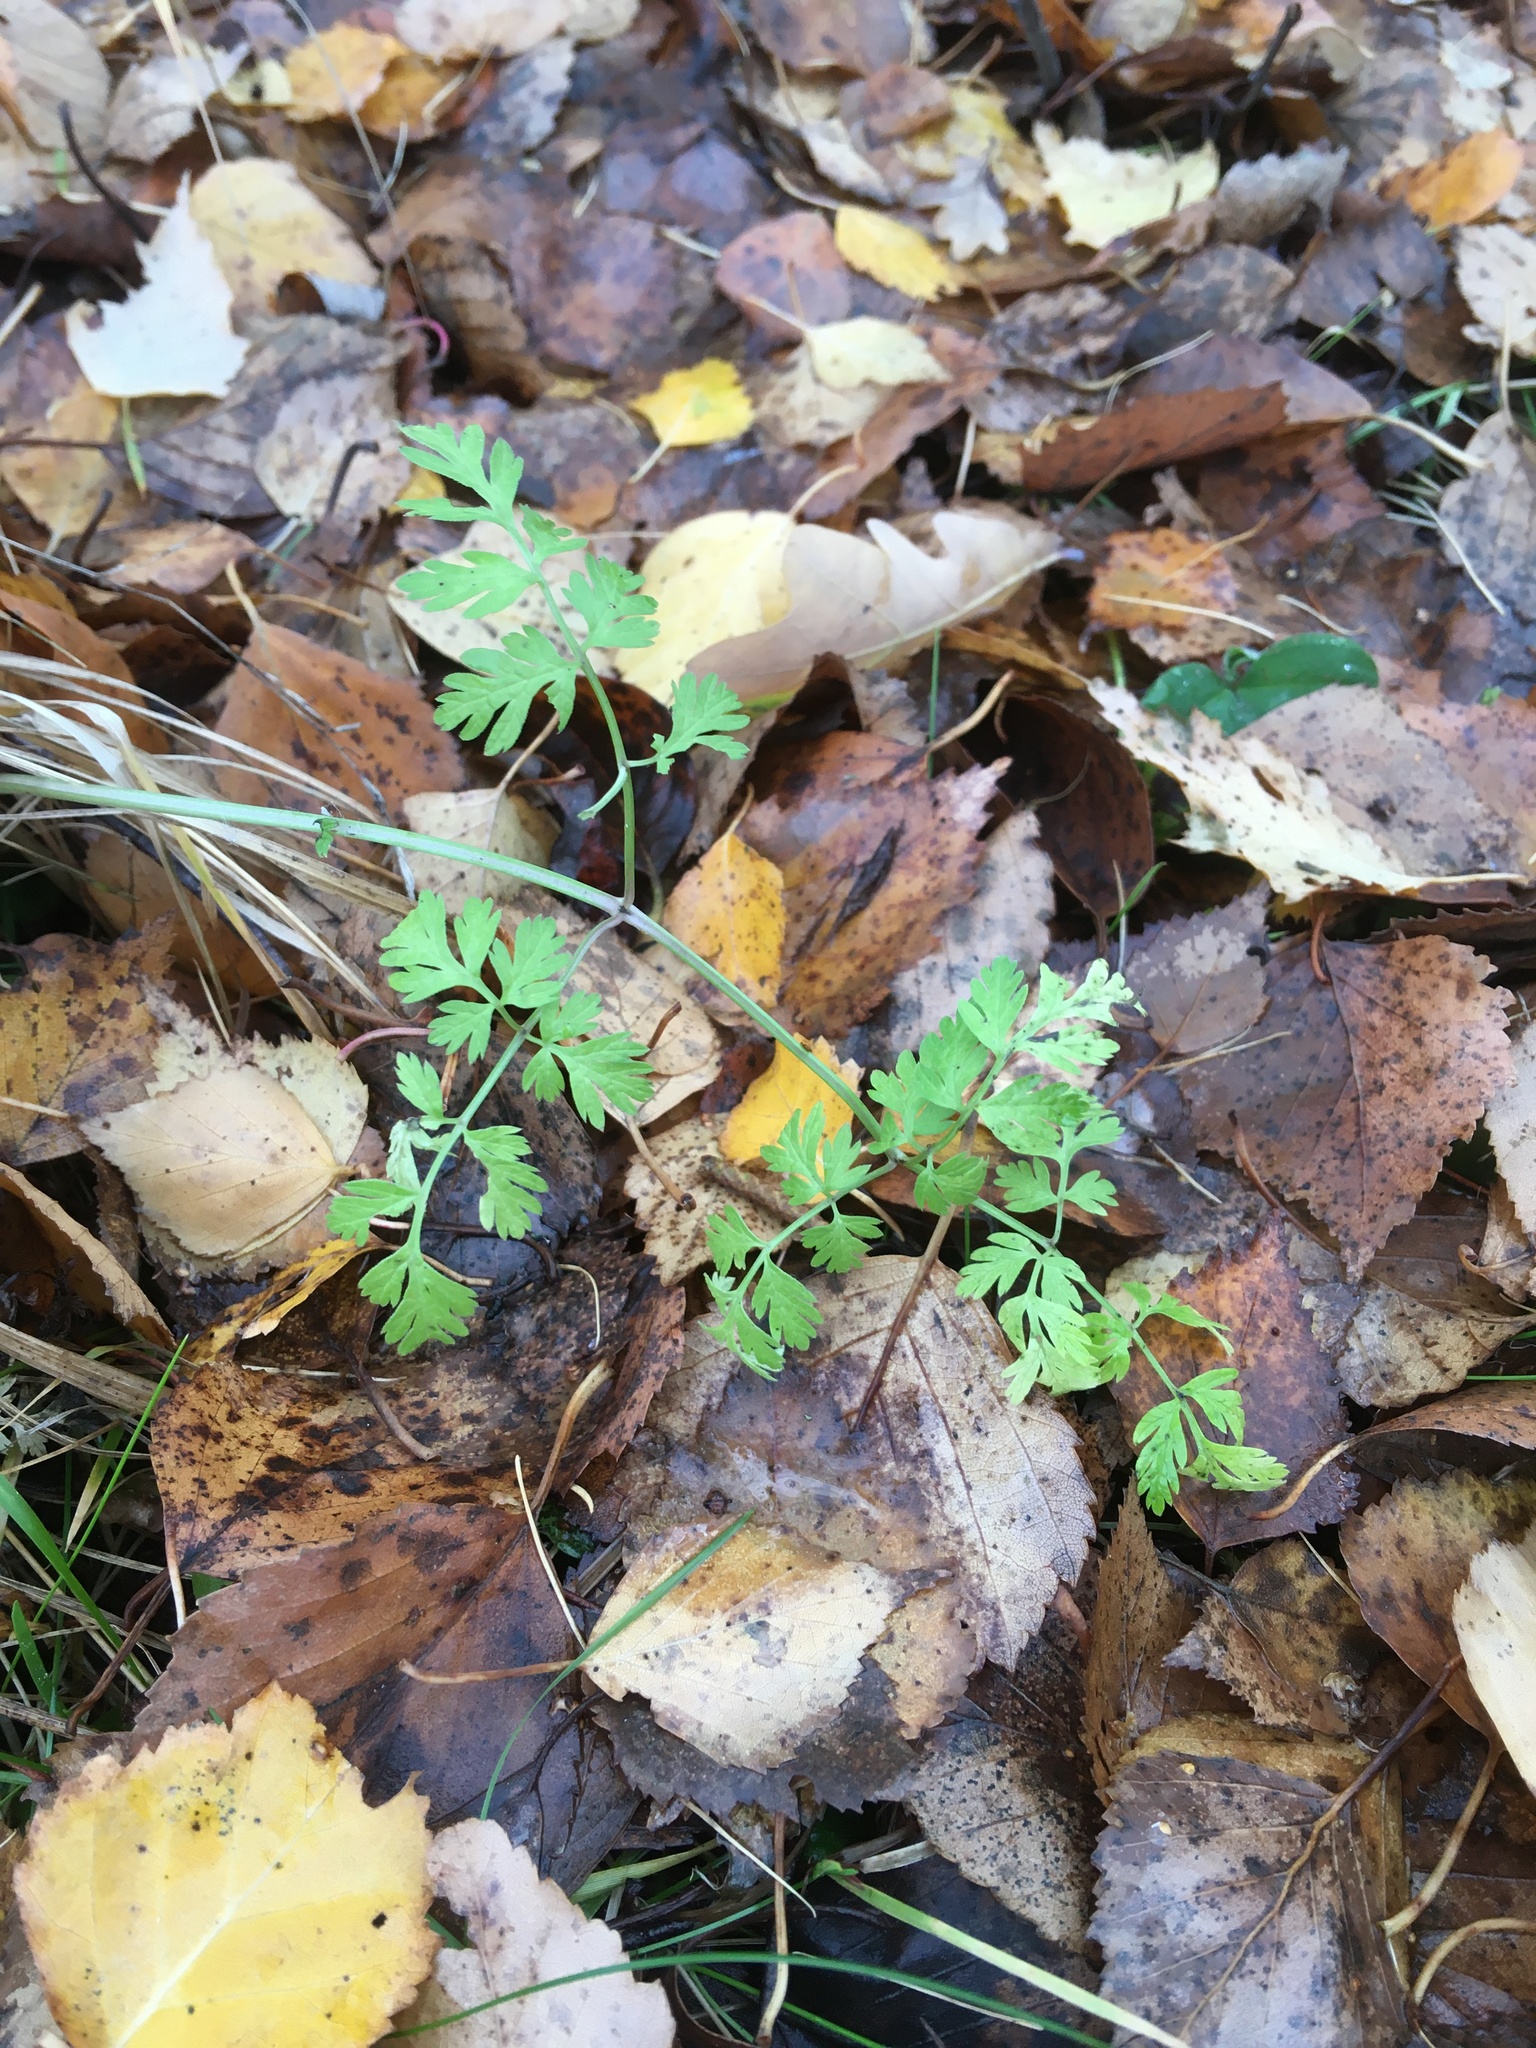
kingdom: Plantae
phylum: Tracheophyta
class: Magnoliopsida
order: Apiales
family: Apiaceae
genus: Anthriscus
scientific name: Anthriscus sylvestris
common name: Cow parsley
